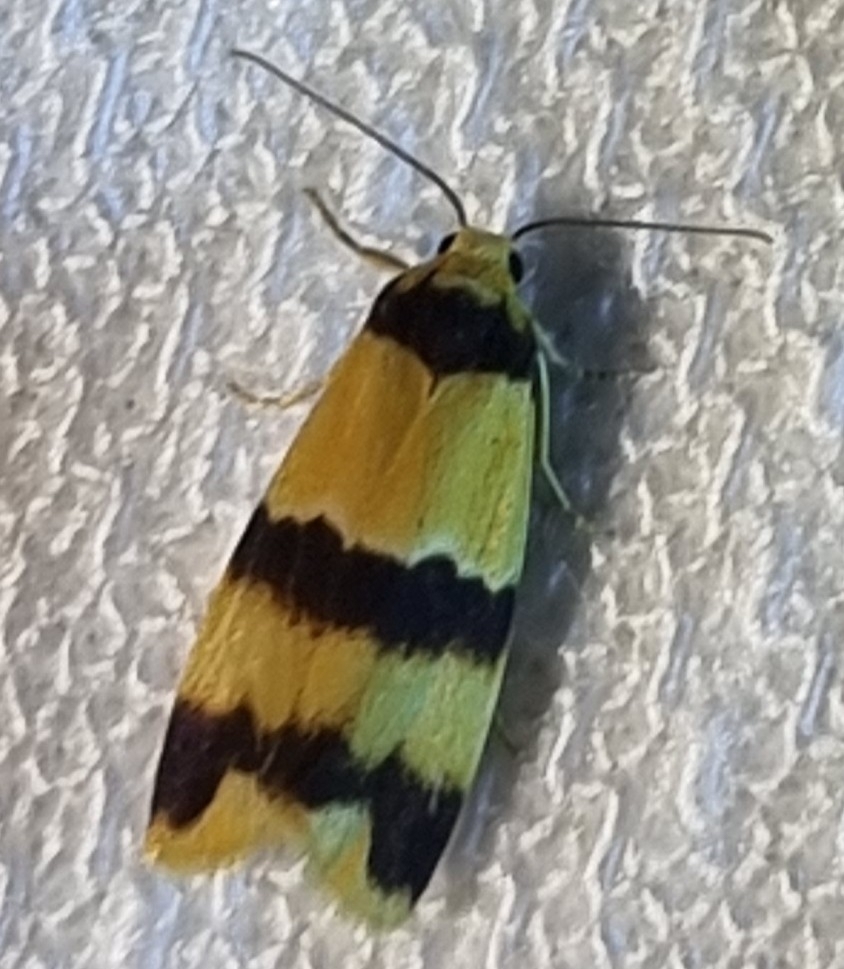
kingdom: Animalia
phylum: Arthropoda
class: Insecta
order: Lepidoptera
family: Erebidae
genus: Stenoscaptia
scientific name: Stenoscaptia venusta
